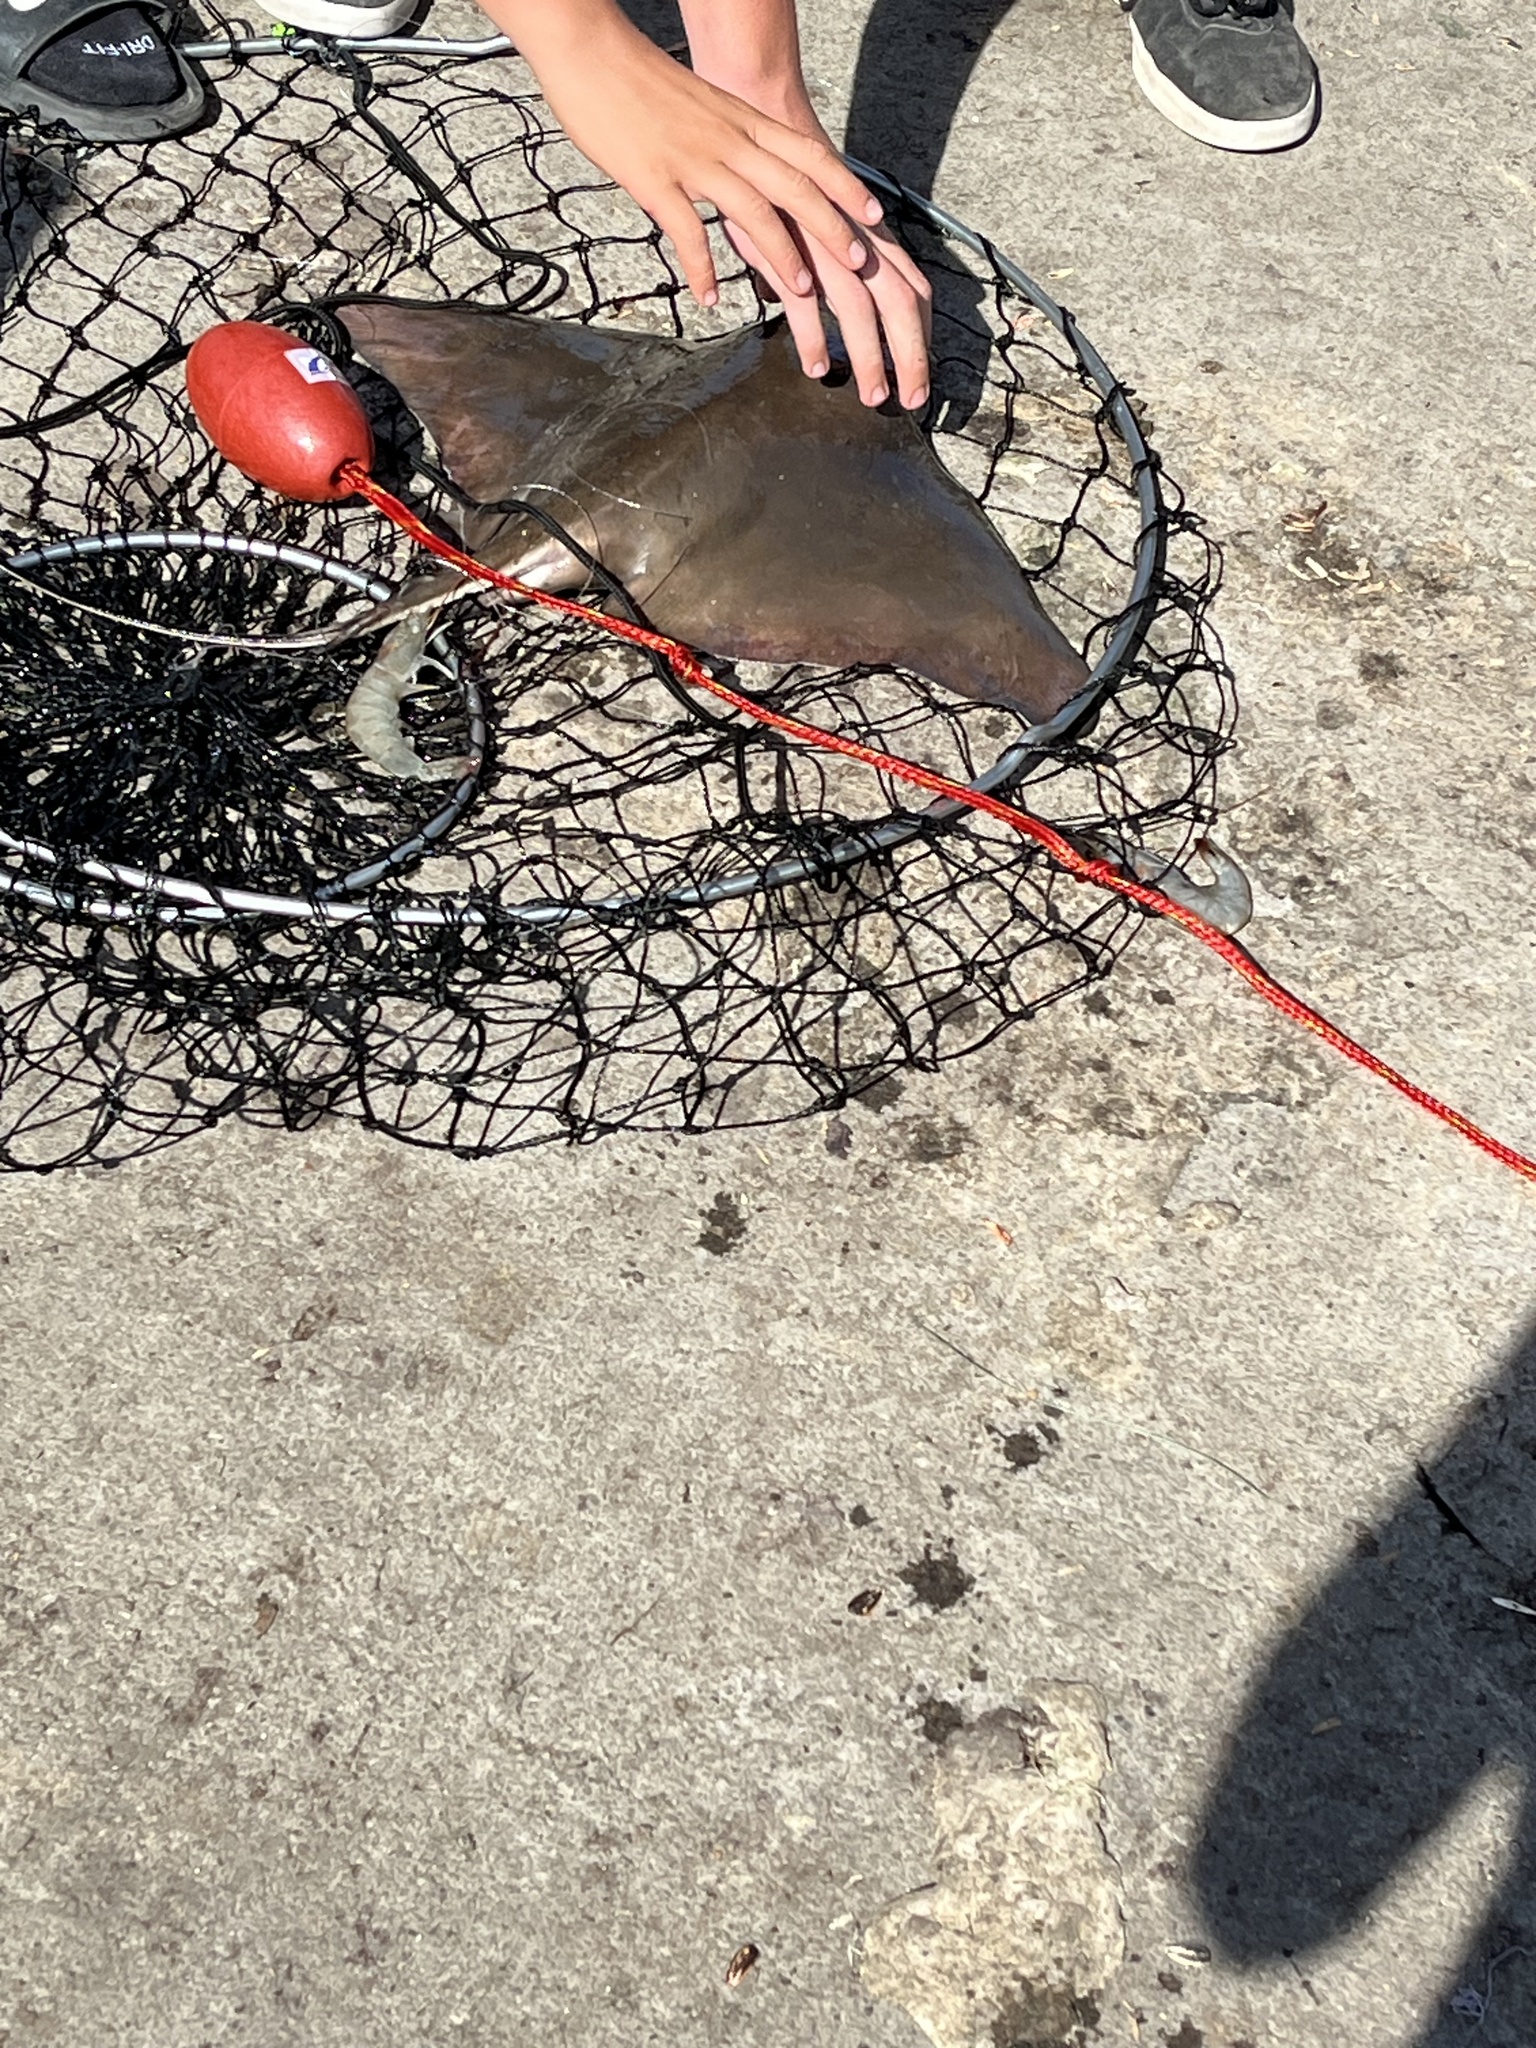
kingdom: Animalia
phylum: Chordata
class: Elasmobranchii
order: Myliobatiformes
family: Myliobatidae
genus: Myliobatis
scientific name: Myliobatis californica
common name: Bat ray
